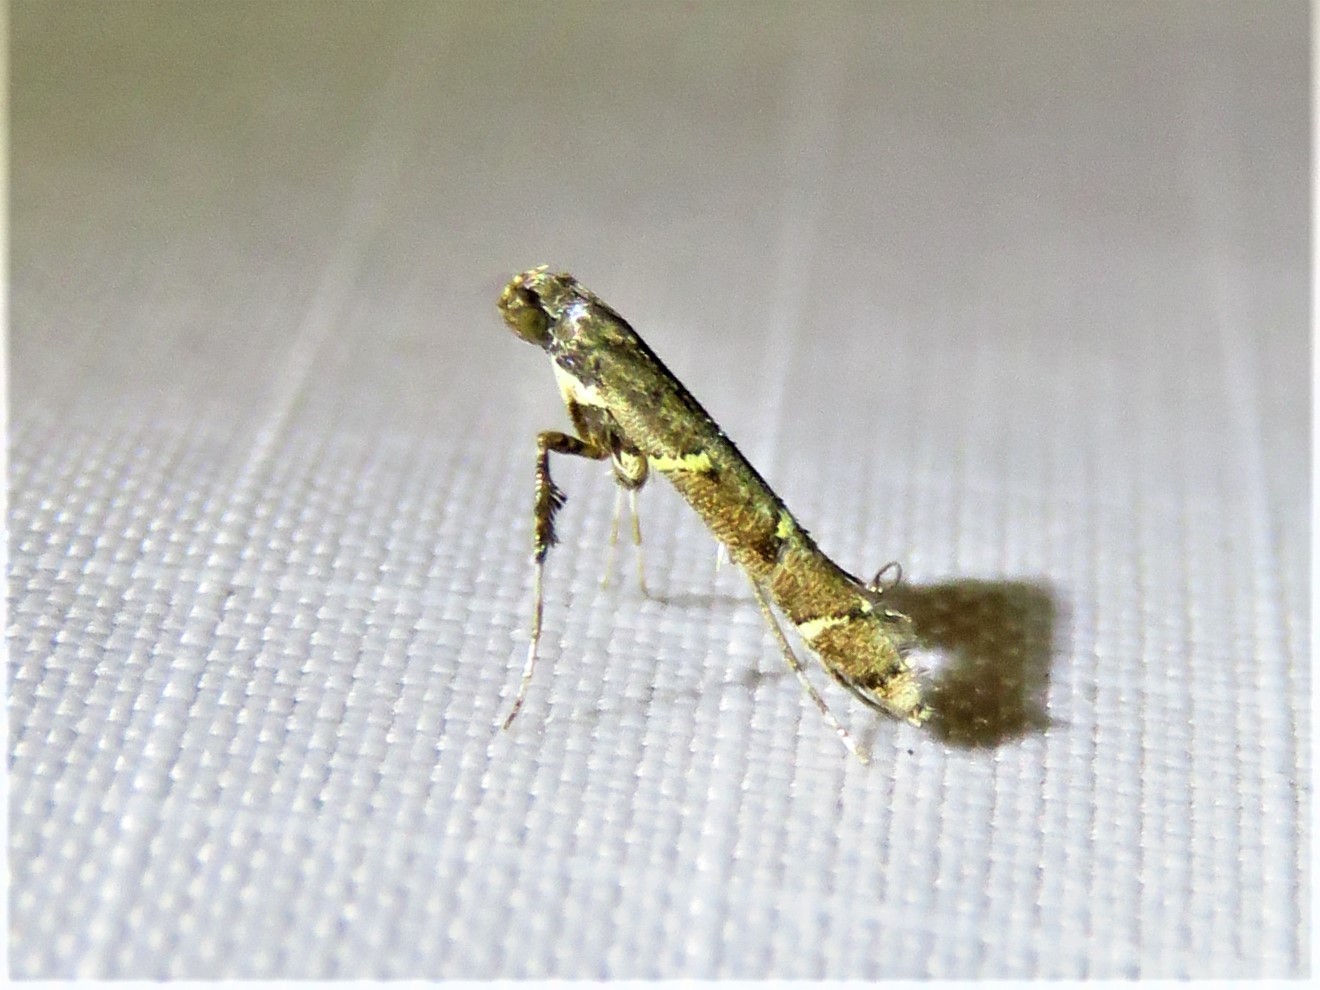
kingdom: Animalia
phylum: Arthropoda
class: Insecta
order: Lepidoptera
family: Gracillariidae
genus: Caloptilia
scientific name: Caloptilia triadicae
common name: Tallow leaf roller
